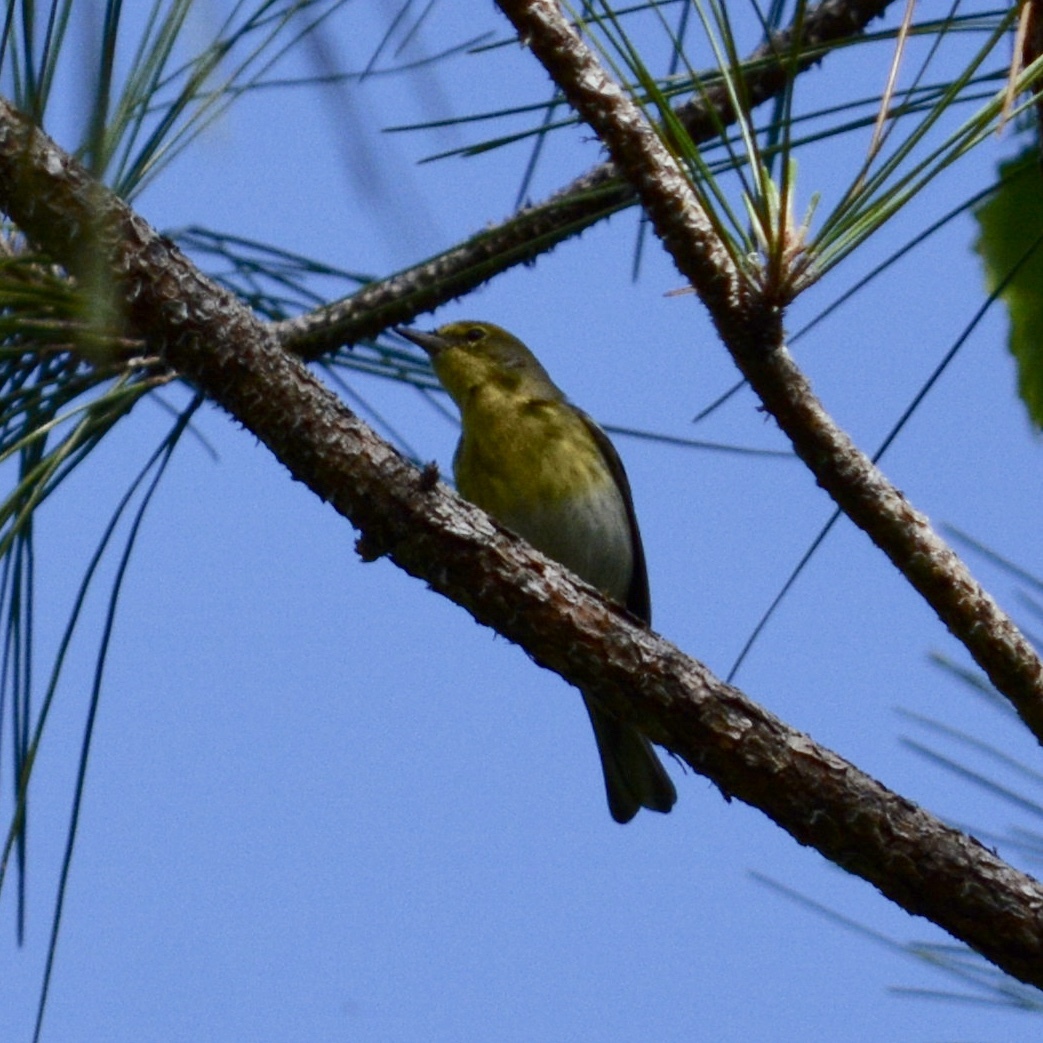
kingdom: Animalia
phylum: Chordata
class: Aves
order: Passeriformes
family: Parulidae
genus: Setophaga
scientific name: Setophaga pinus
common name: Pine warbler
